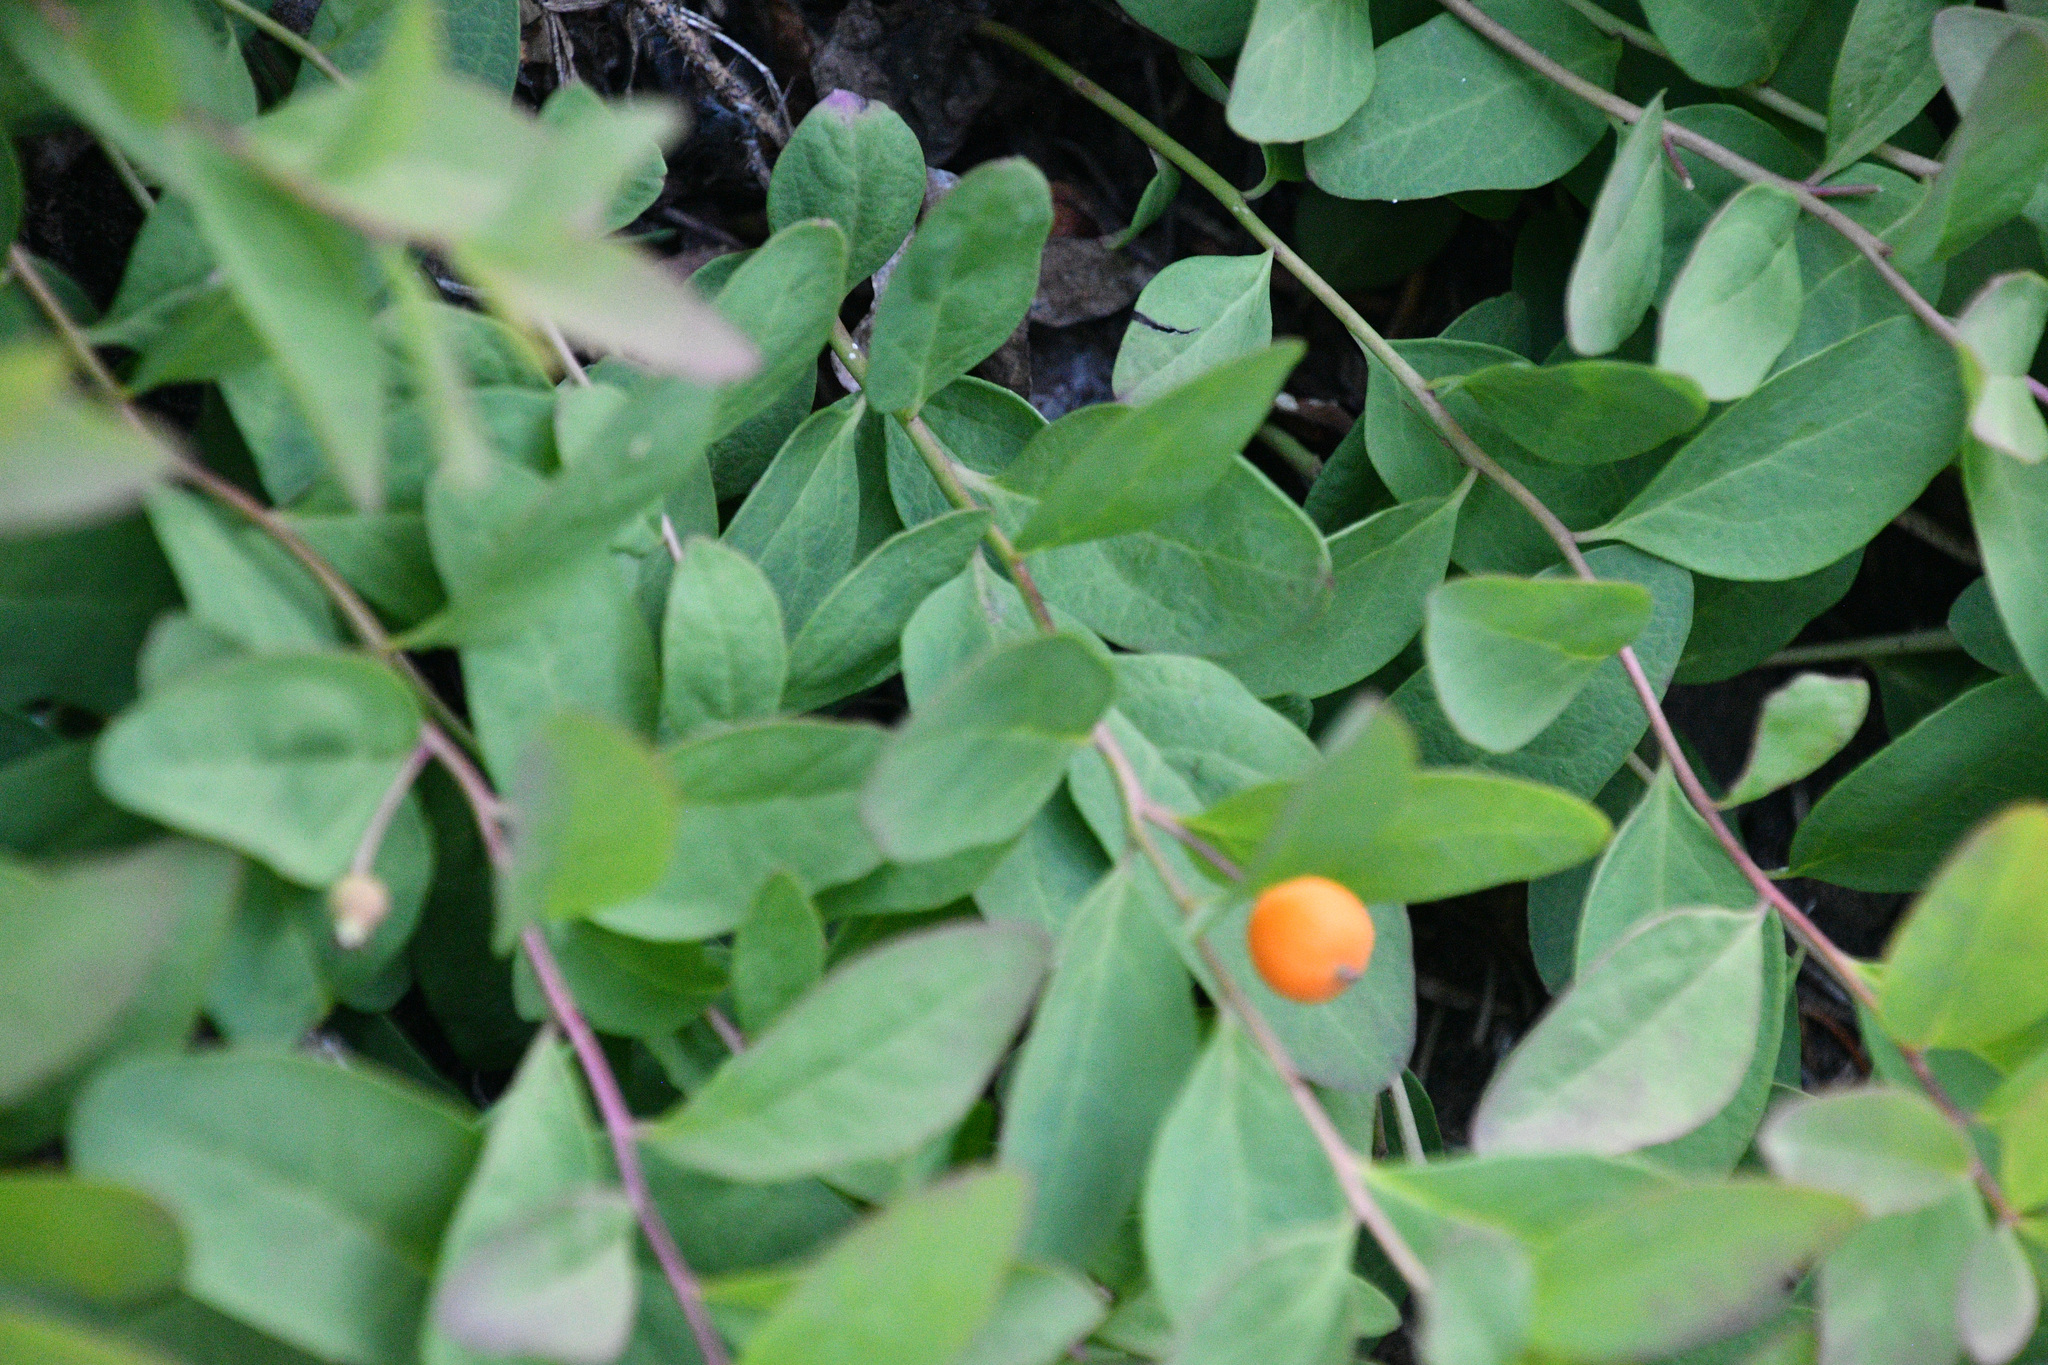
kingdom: Plantae
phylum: Tracheophyta
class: Magnoliopsida
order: Santalales
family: Comandraceae
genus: Geocaulon
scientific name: Geocaulon lividum
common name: Earthberry
